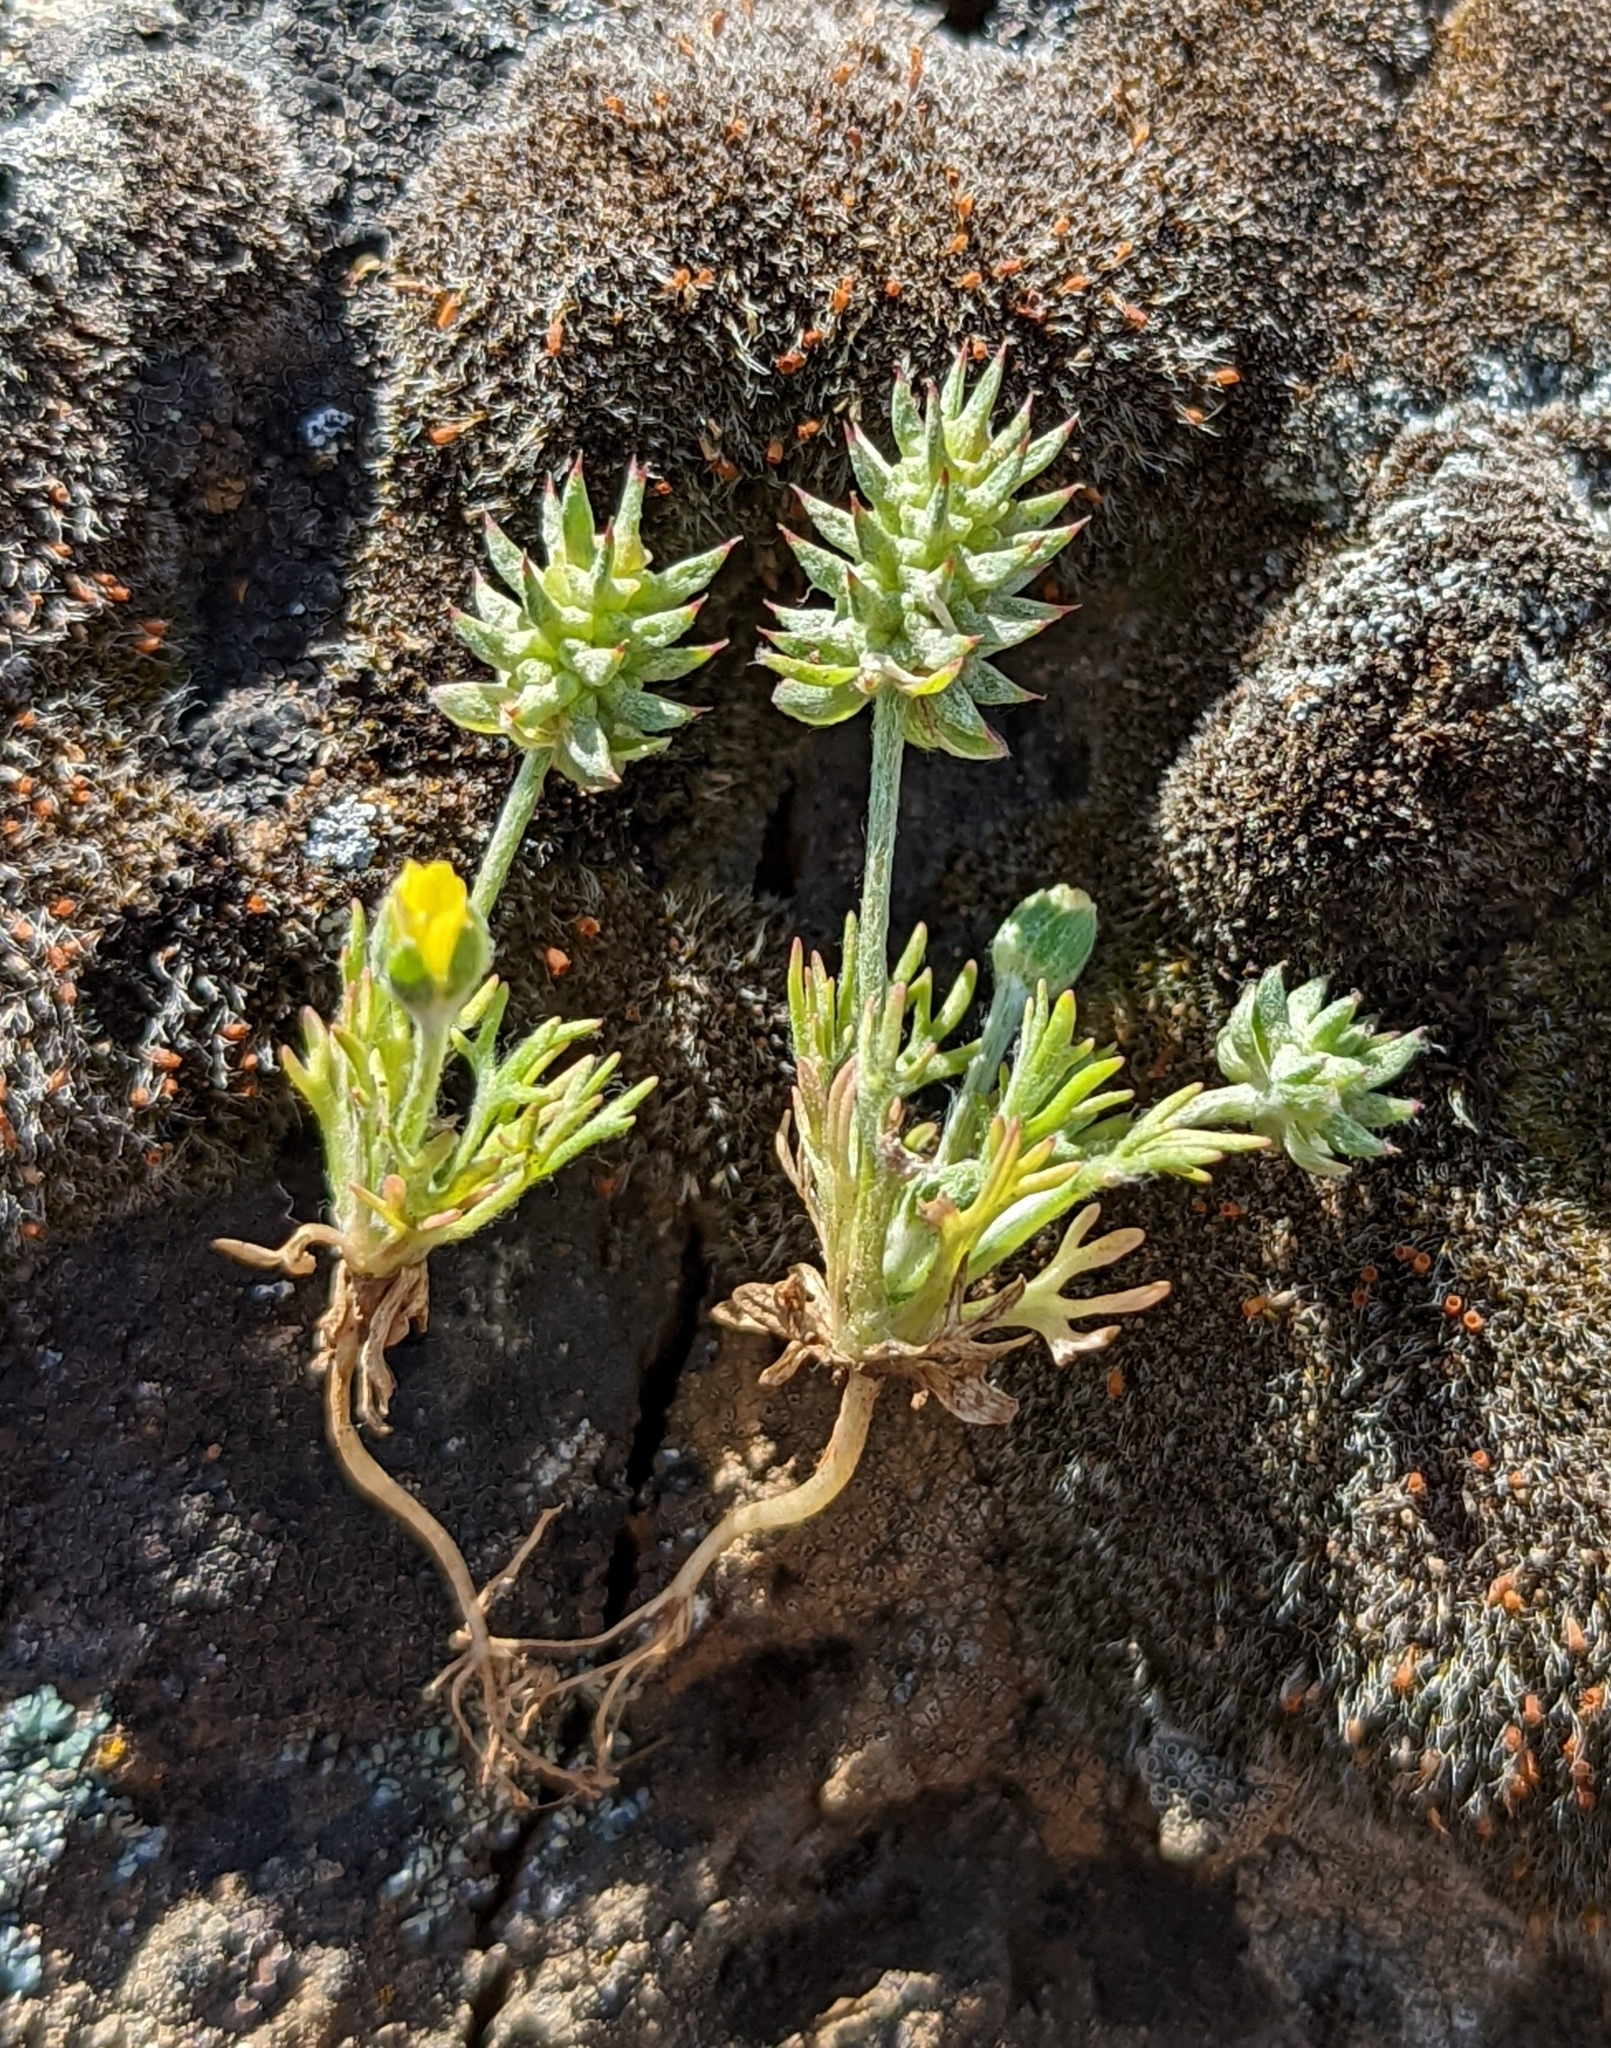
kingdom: Plantae
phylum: Tracheophyta
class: Magnoliopsida
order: Ranunculales
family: Ranunculaceae
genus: Ceratocephala
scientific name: Ceratocephala orthoceras
